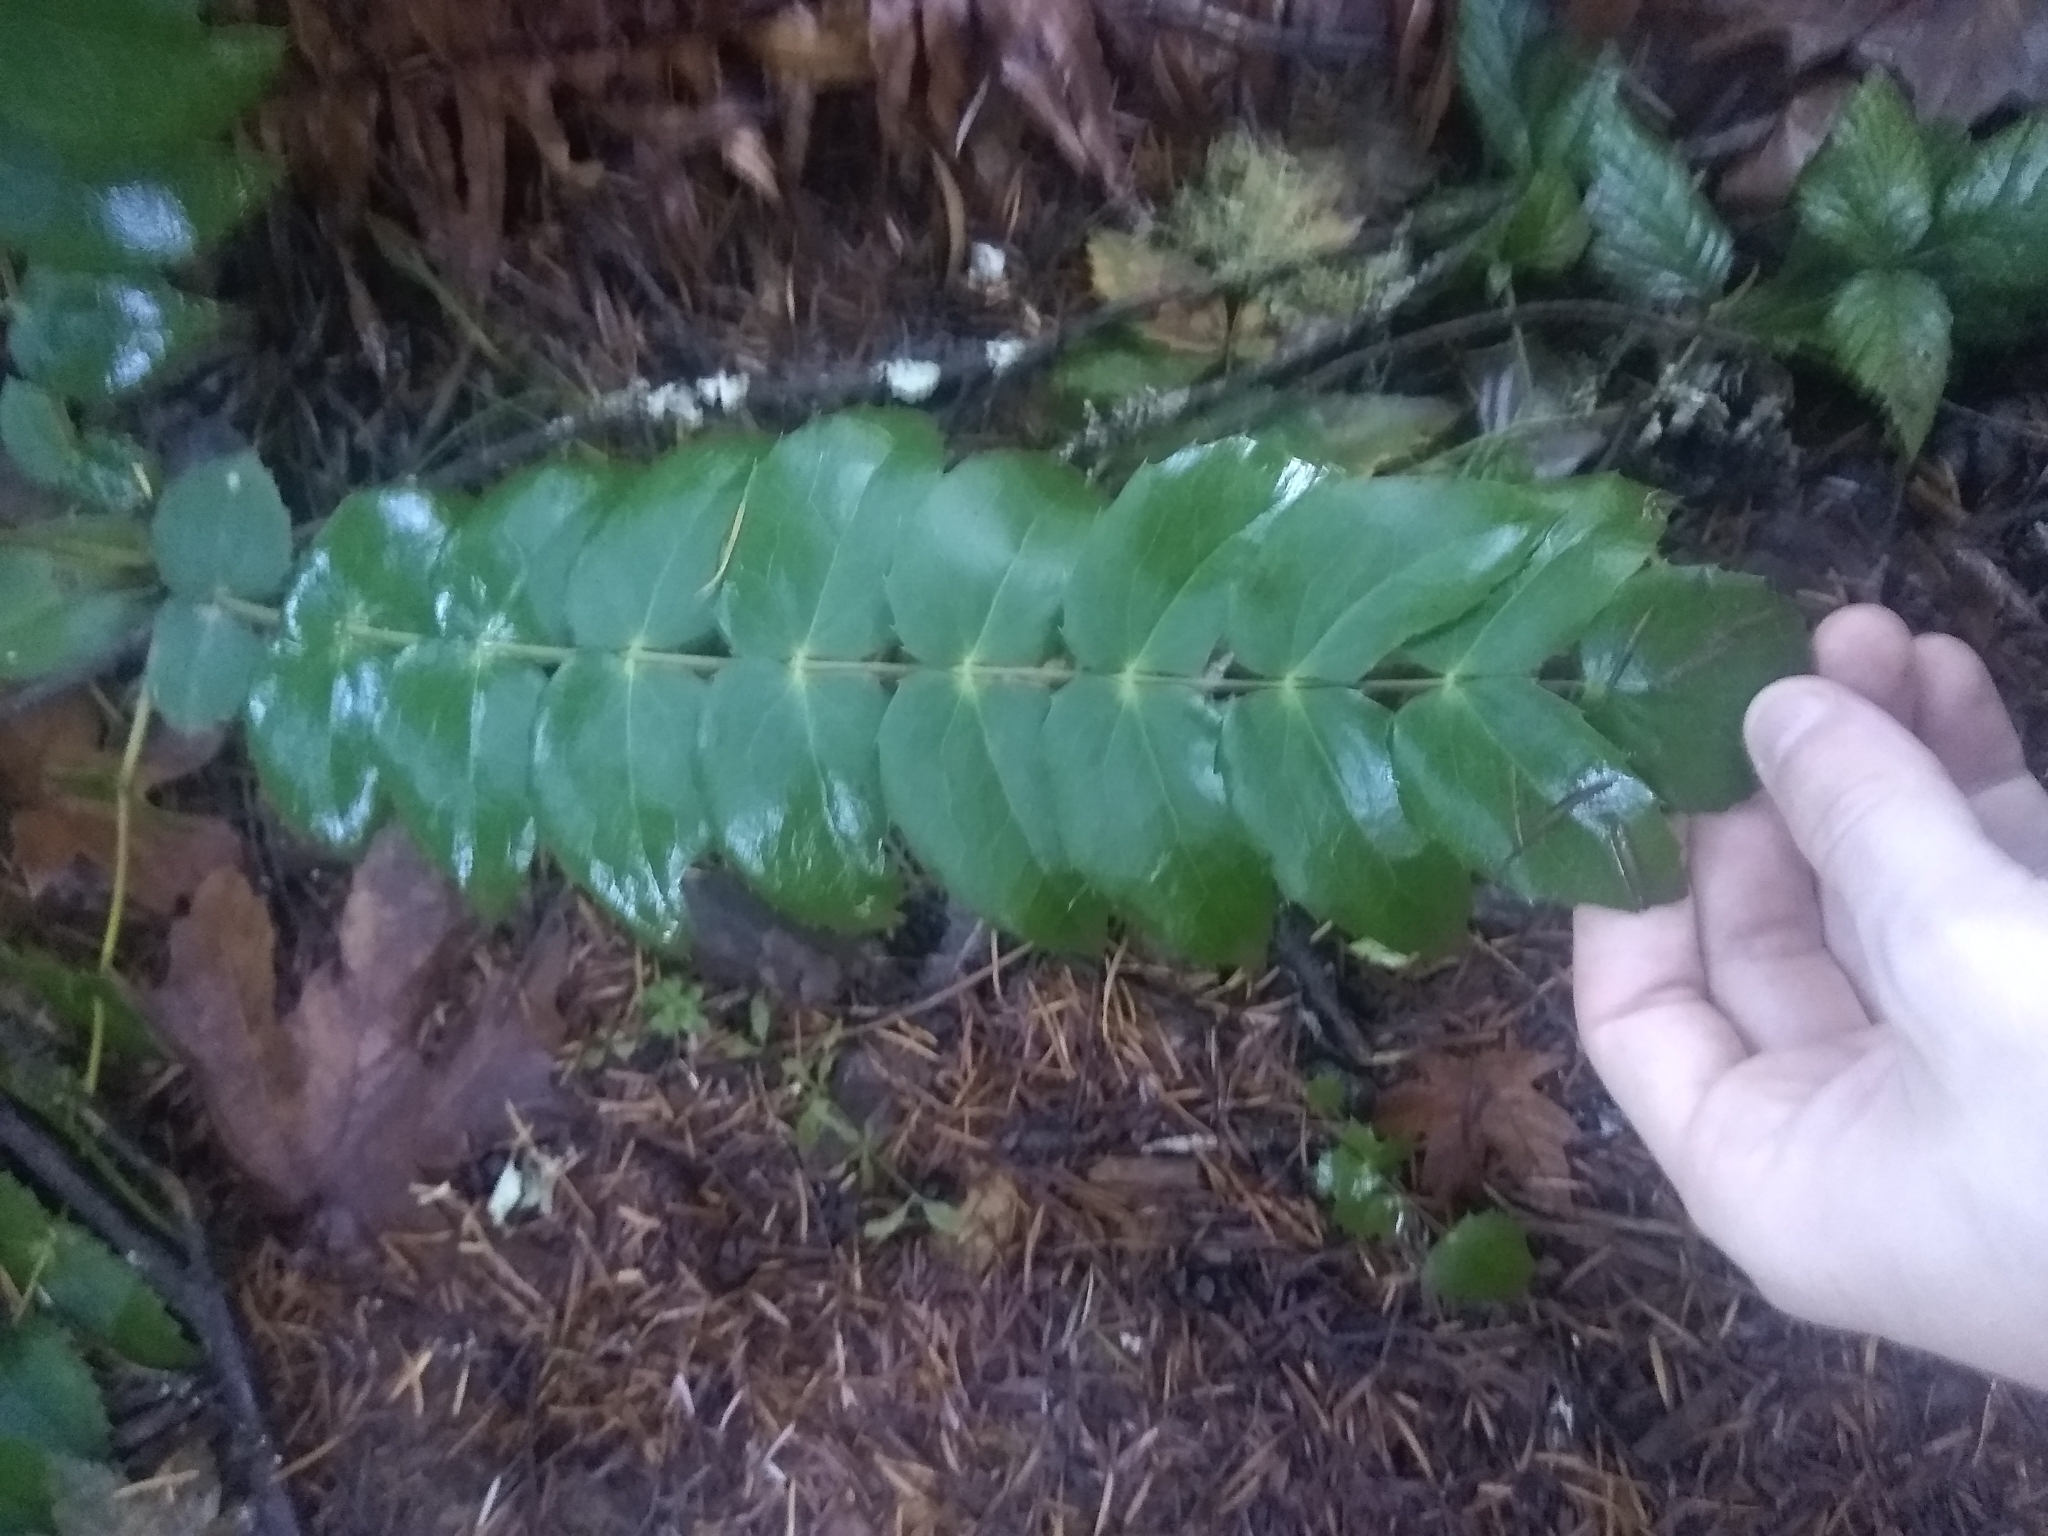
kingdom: Plantae
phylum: Tracheophyta
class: Magnoliopsida
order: Ranunculales
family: Berberidaceae
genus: Mahonia
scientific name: Mahonia nervosa
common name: Cascade oregon-grape
